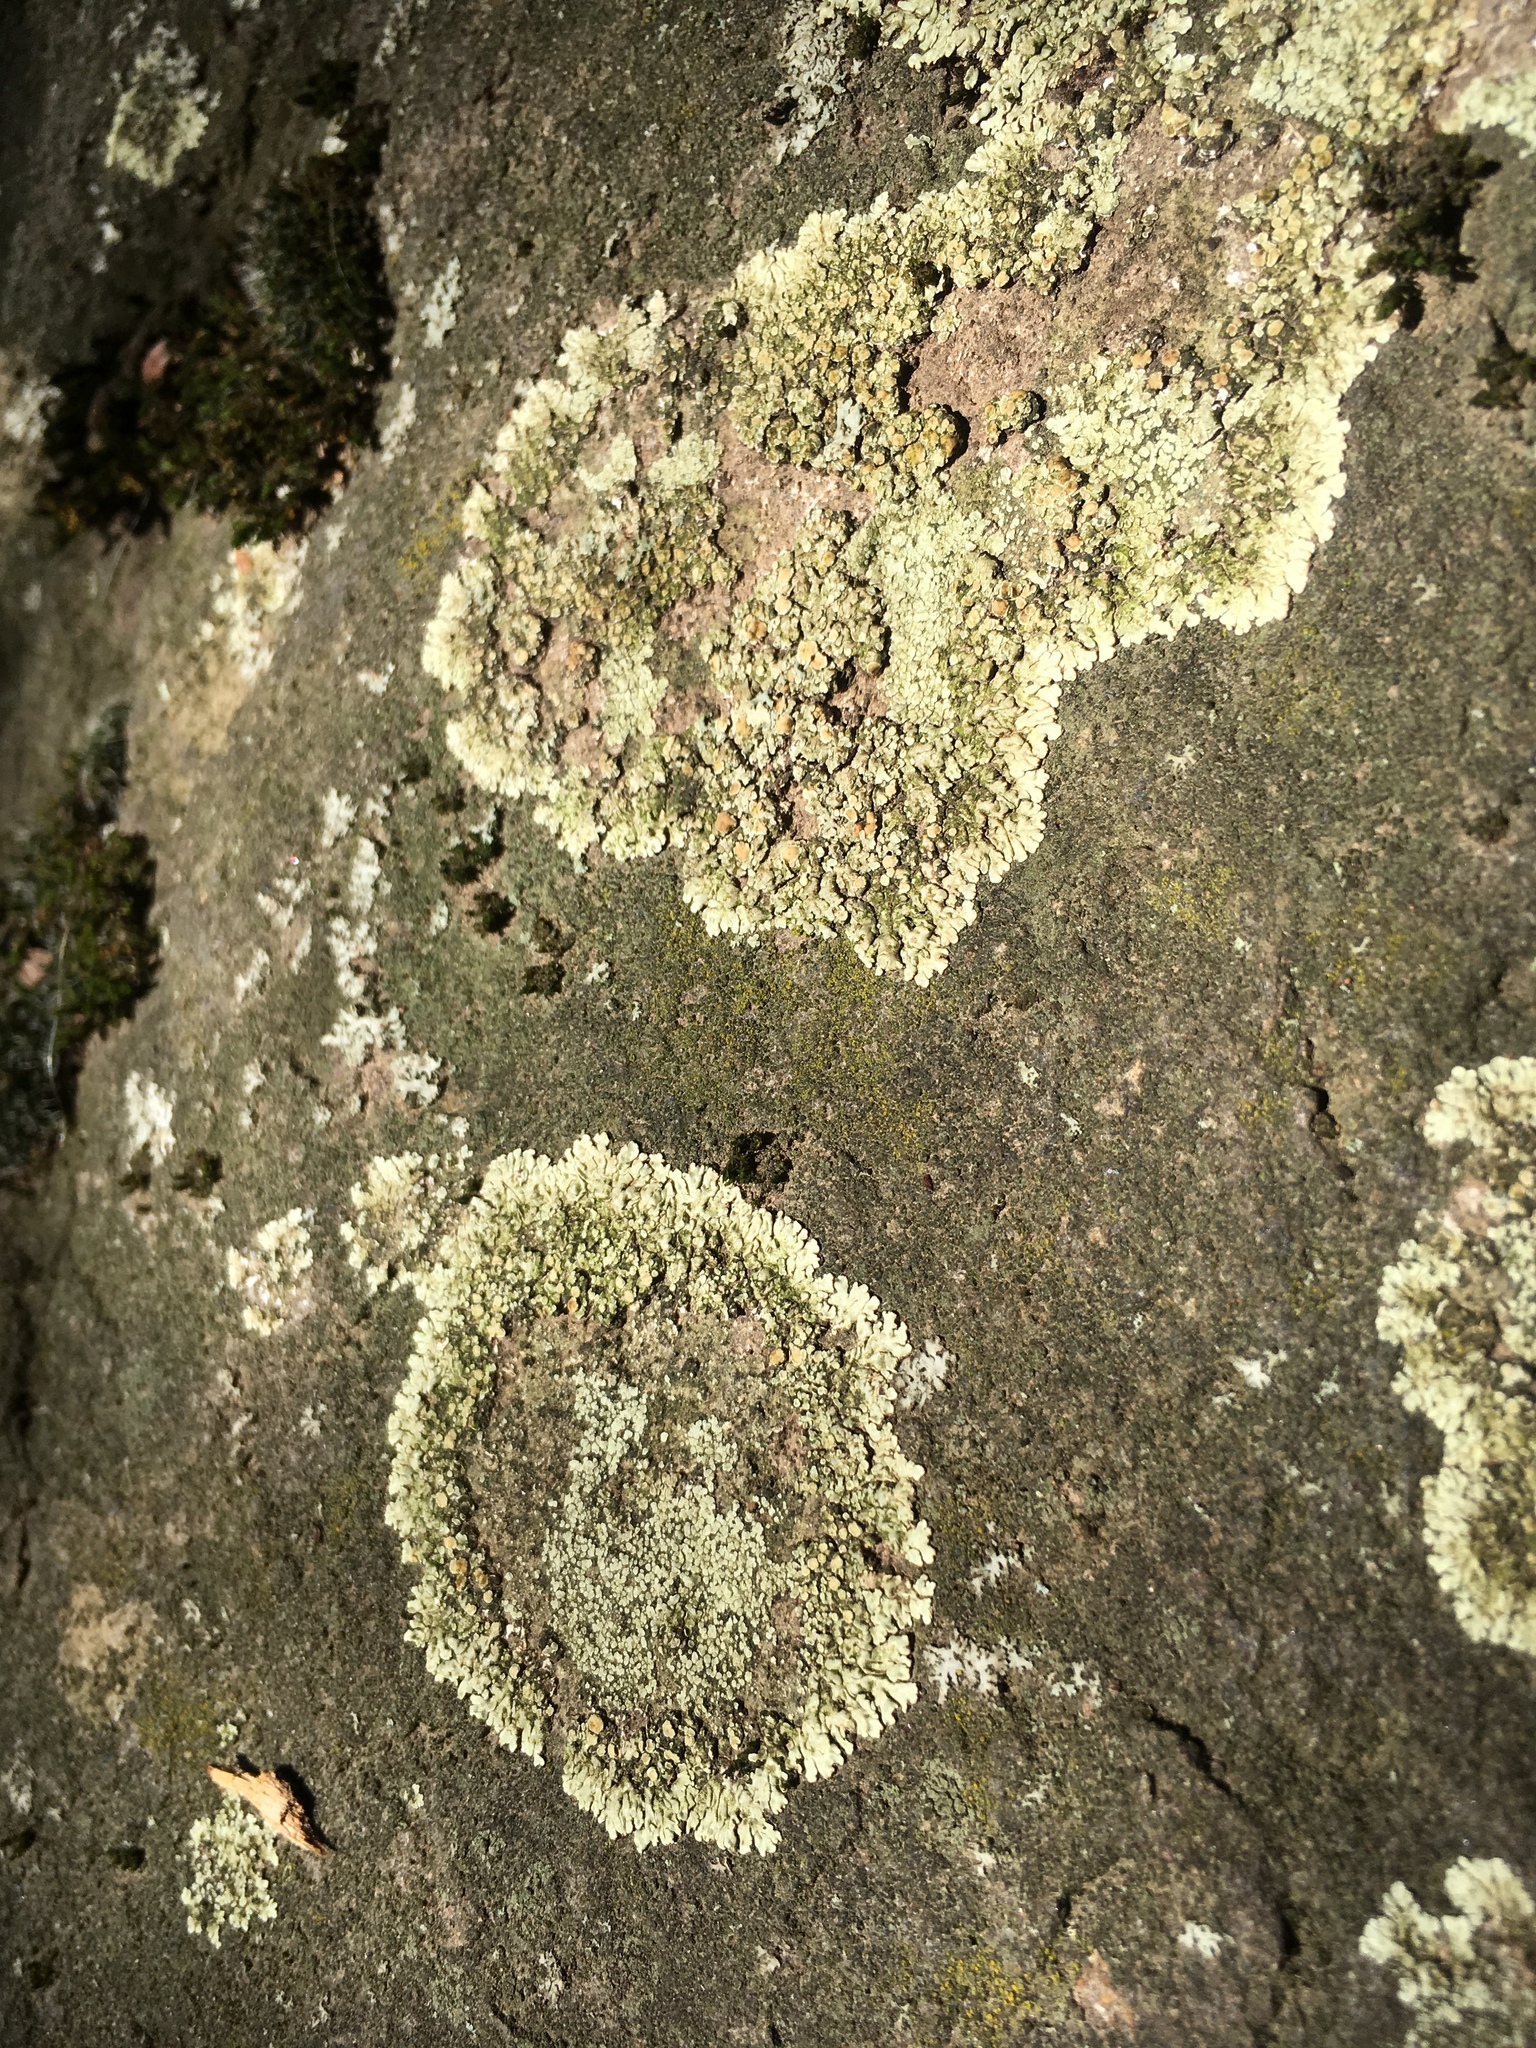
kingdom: Fungi
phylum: Ascomycota
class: Lecanoromycetes
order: Lecanorales
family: Lecanoraceae
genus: Protoparmeliopsis
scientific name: Protoparmeliopsis muralis
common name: Stonewall rim lichen
